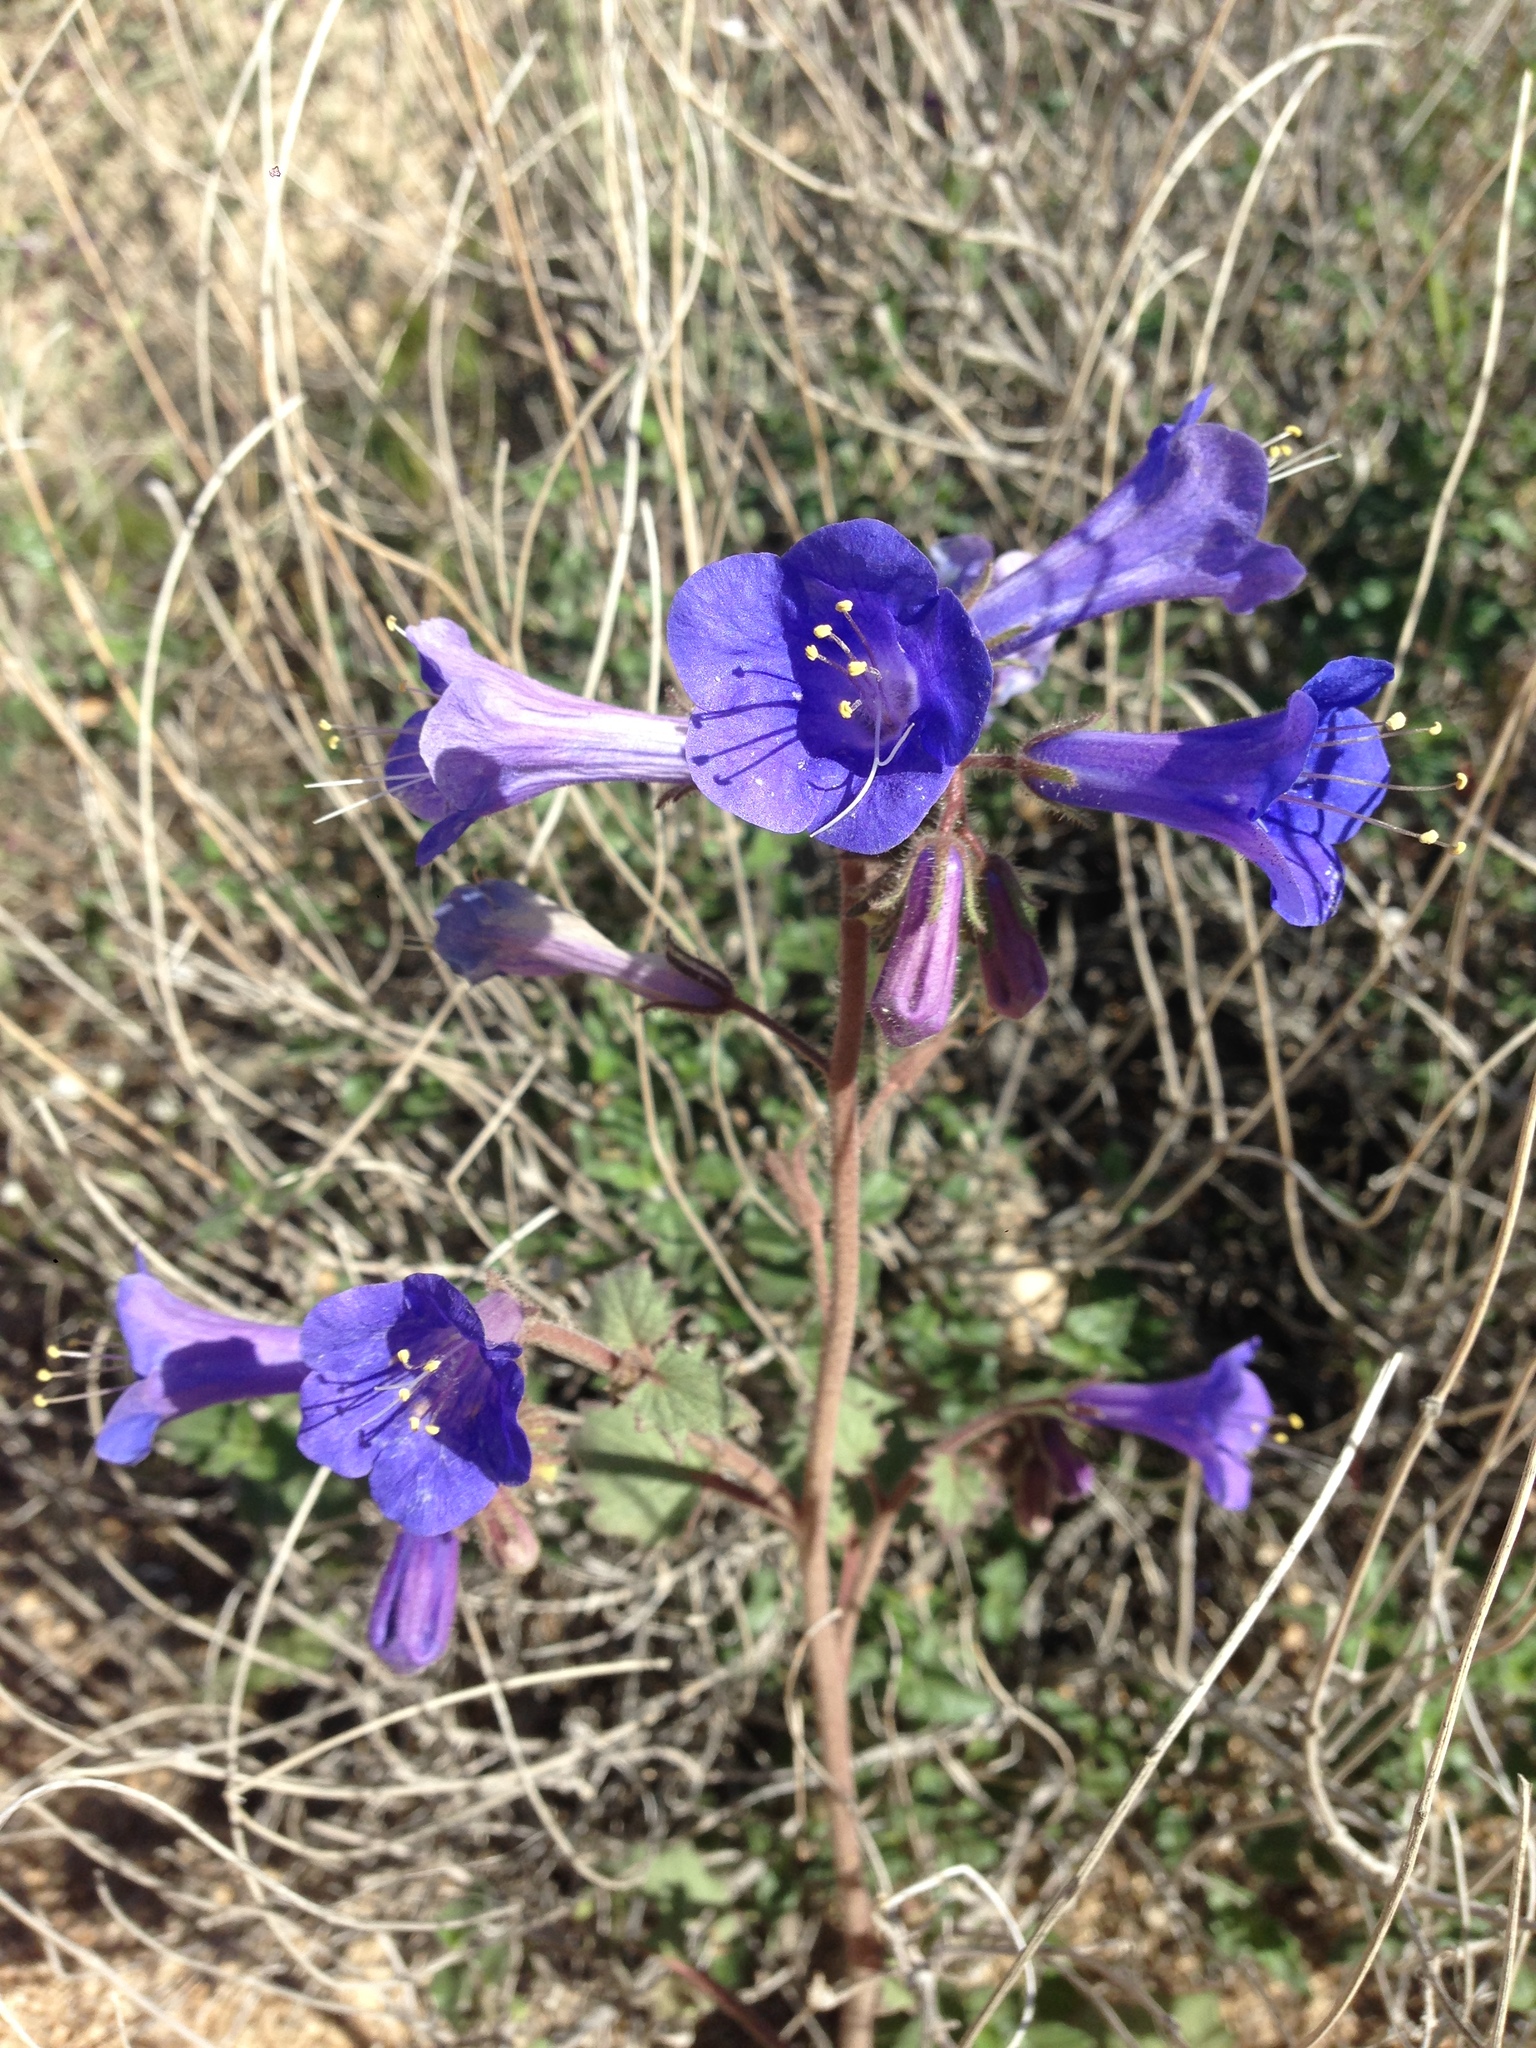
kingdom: Plantae
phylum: Tracheophyta
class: Magnoliopsida
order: Boraginales
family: Hydrophyllaceae
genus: Phacelia
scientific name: Phacelia campanularia
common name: California bluebell
